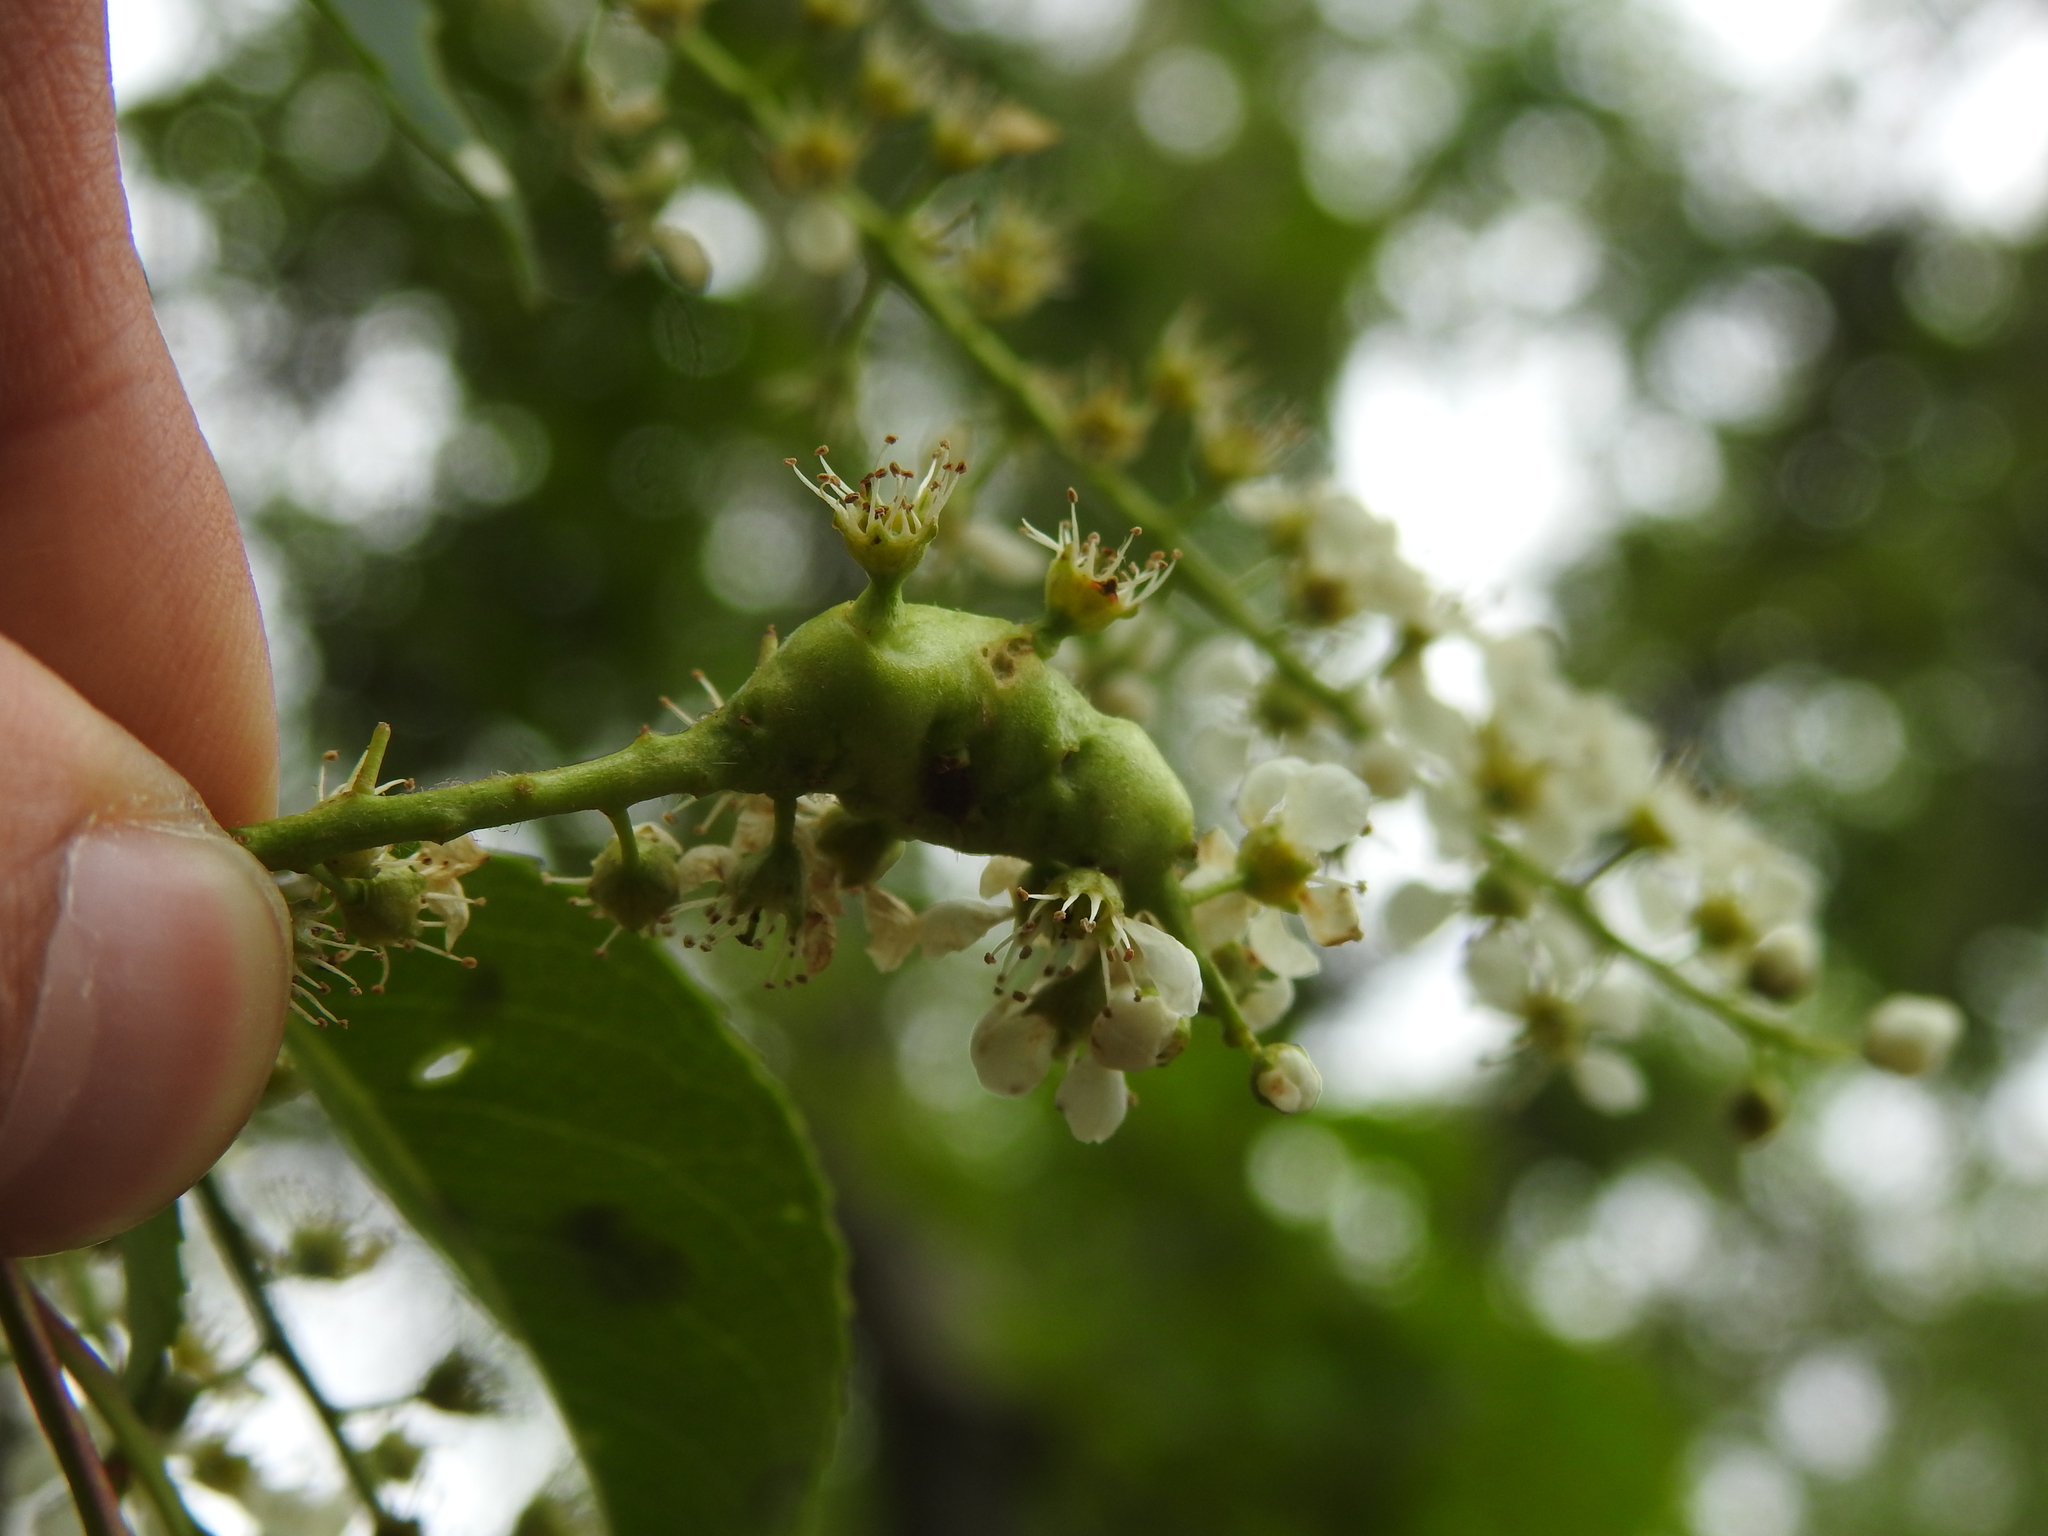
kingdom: Animalia
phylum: Arthropoda
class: Insecta
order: Diptera
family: Cecidomyiidae
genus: Contarinia
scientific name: Contarinia racemi
